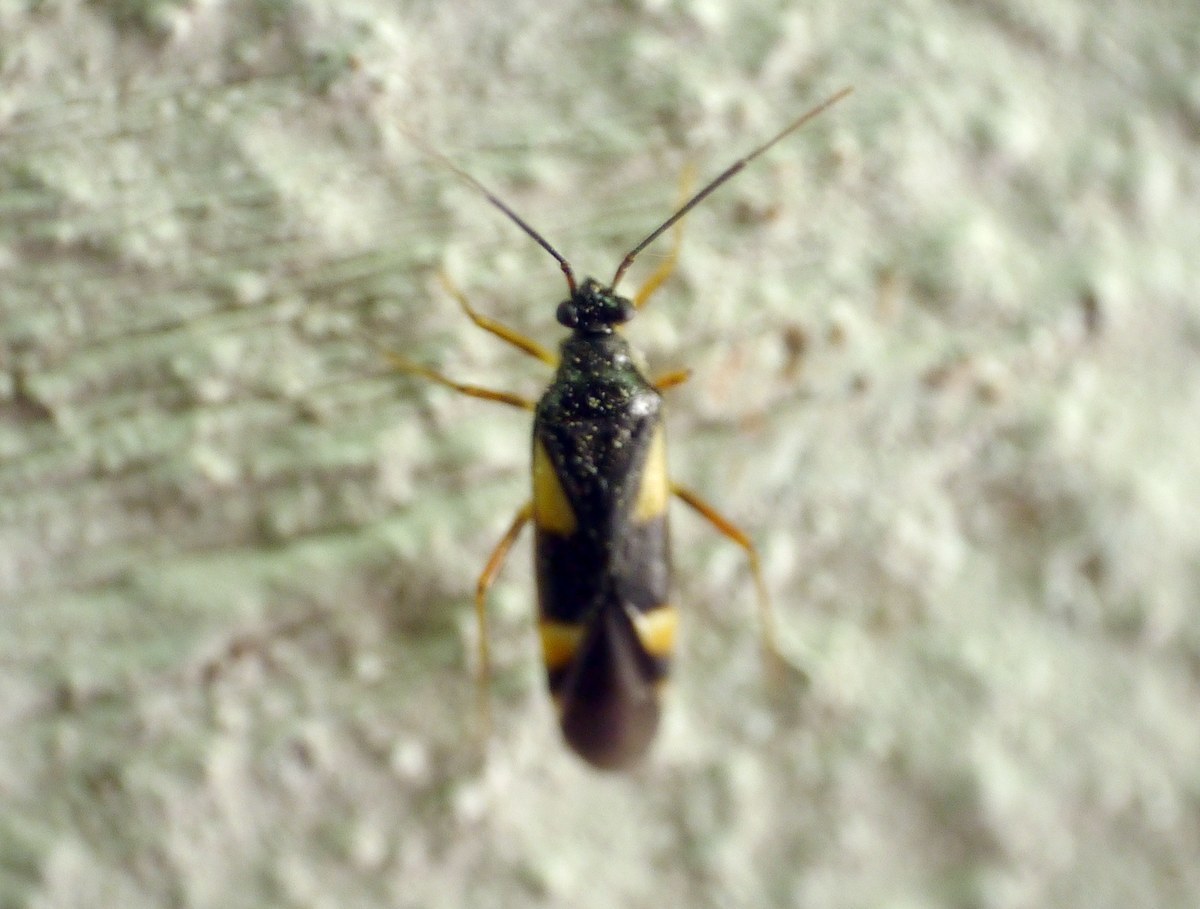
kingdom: Animalia
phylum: Arthropoda
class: Insecta
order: Hemiptera
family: Miridae
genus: Dryophilocoris
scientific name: Dryophilocoris flavoquadrimaculatus
